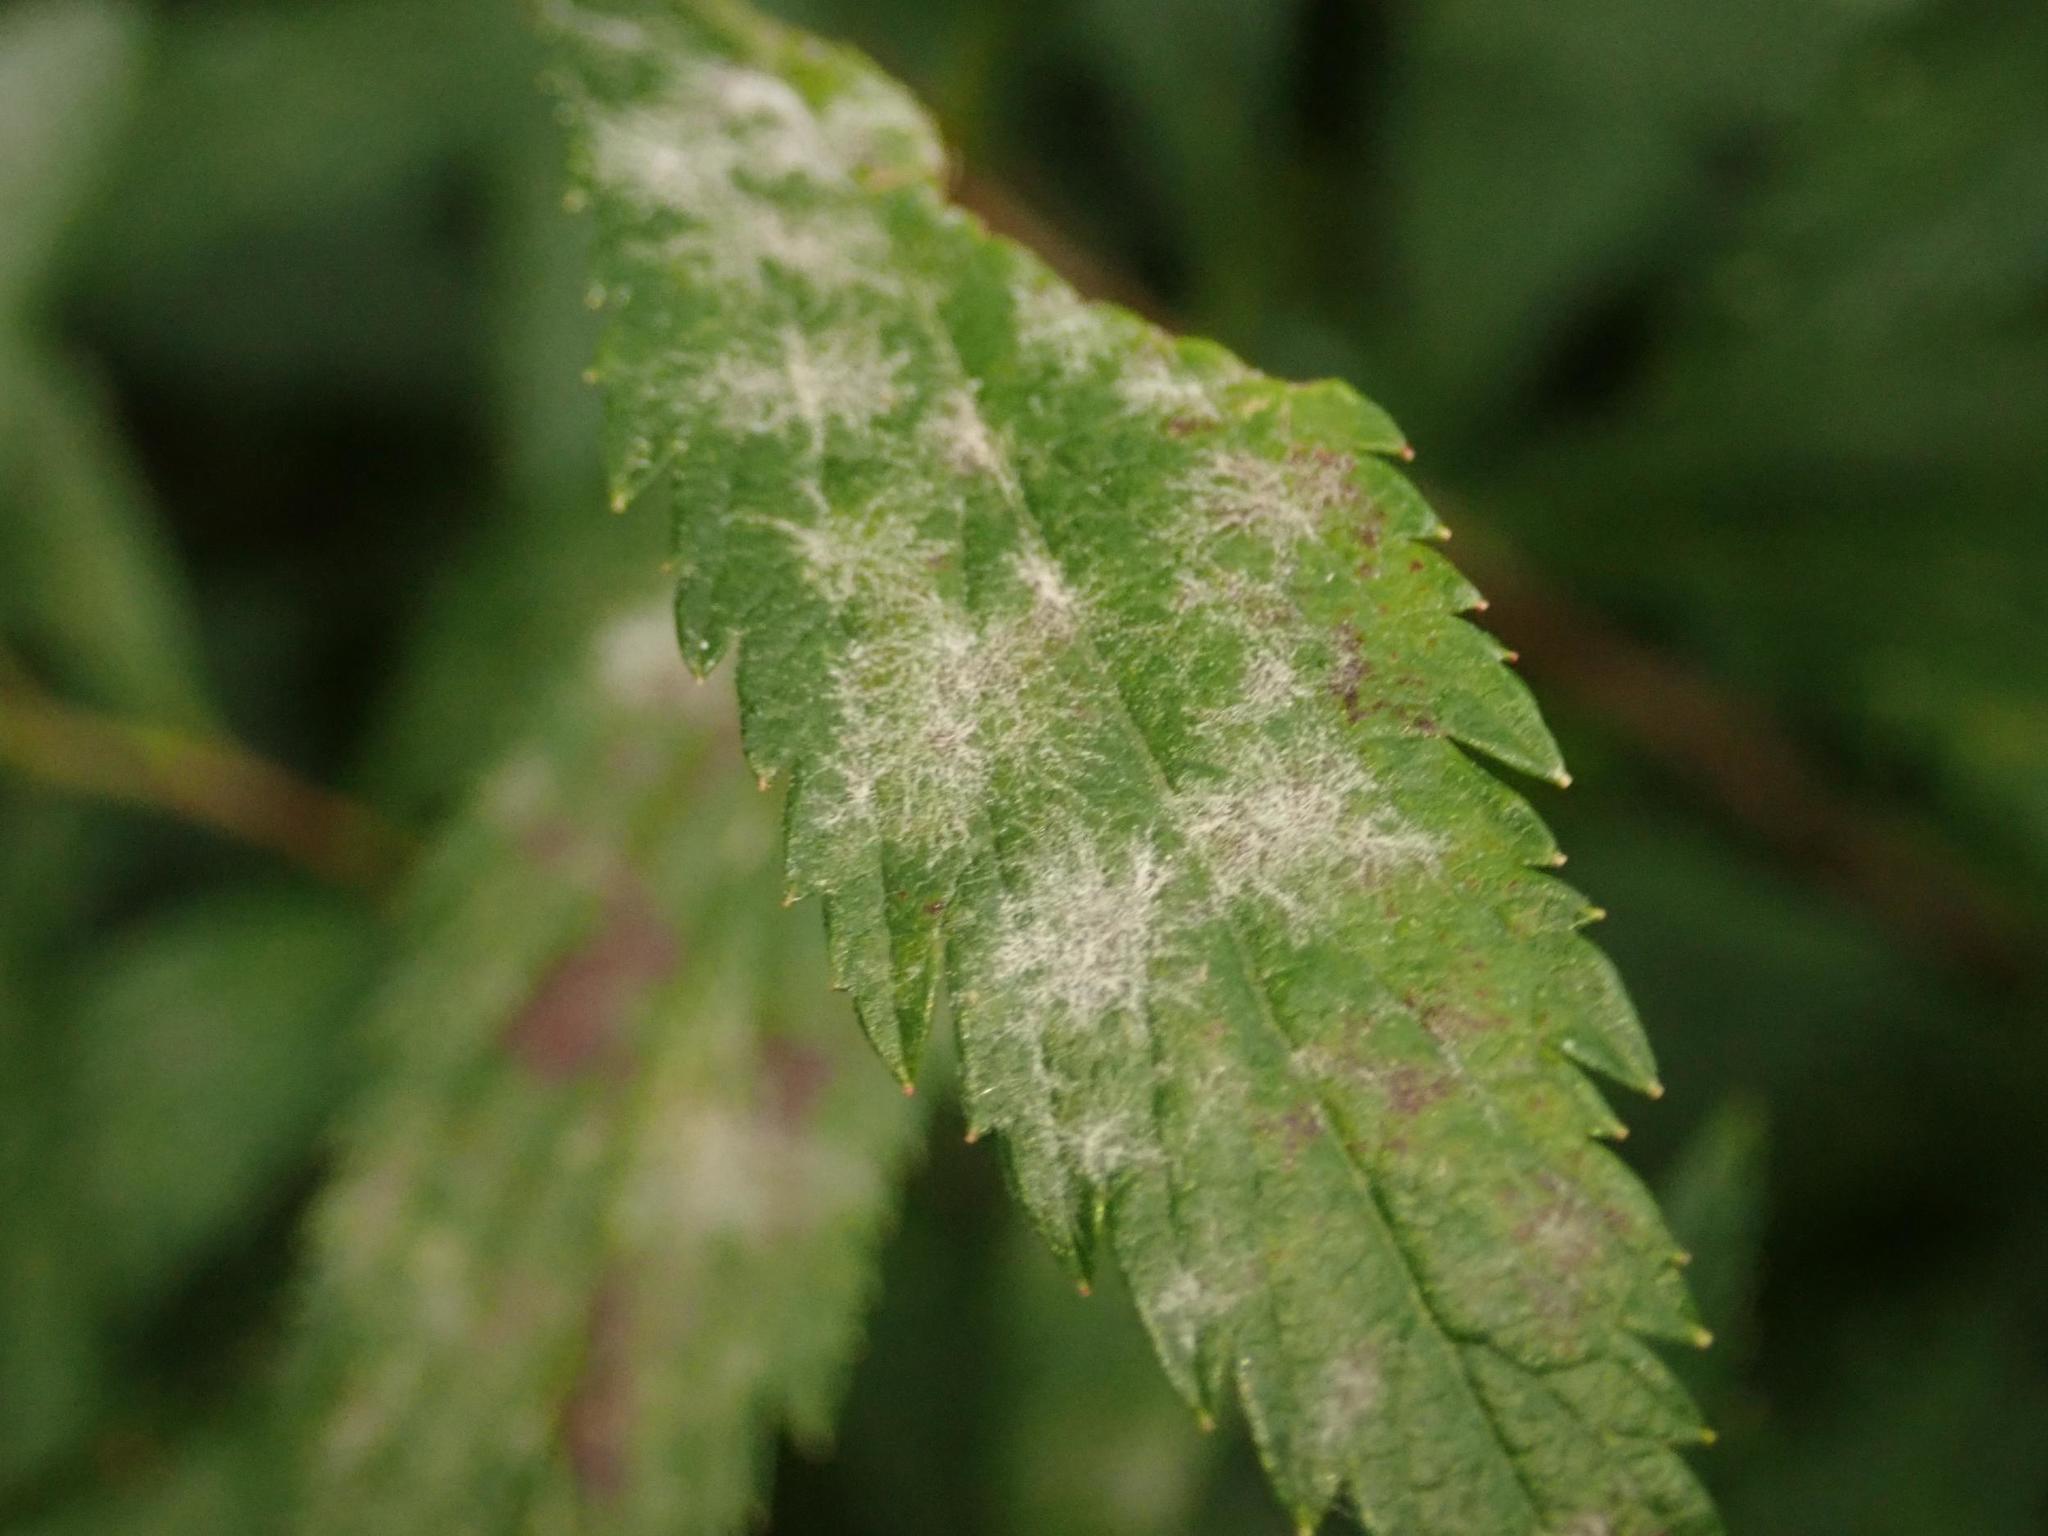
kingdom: Fungi
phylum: Ascomycota
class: Leotiomycetes
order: Helotiales
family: Erysiphaceae
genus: Podosphaera
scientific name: Podosphaera spiraeae
